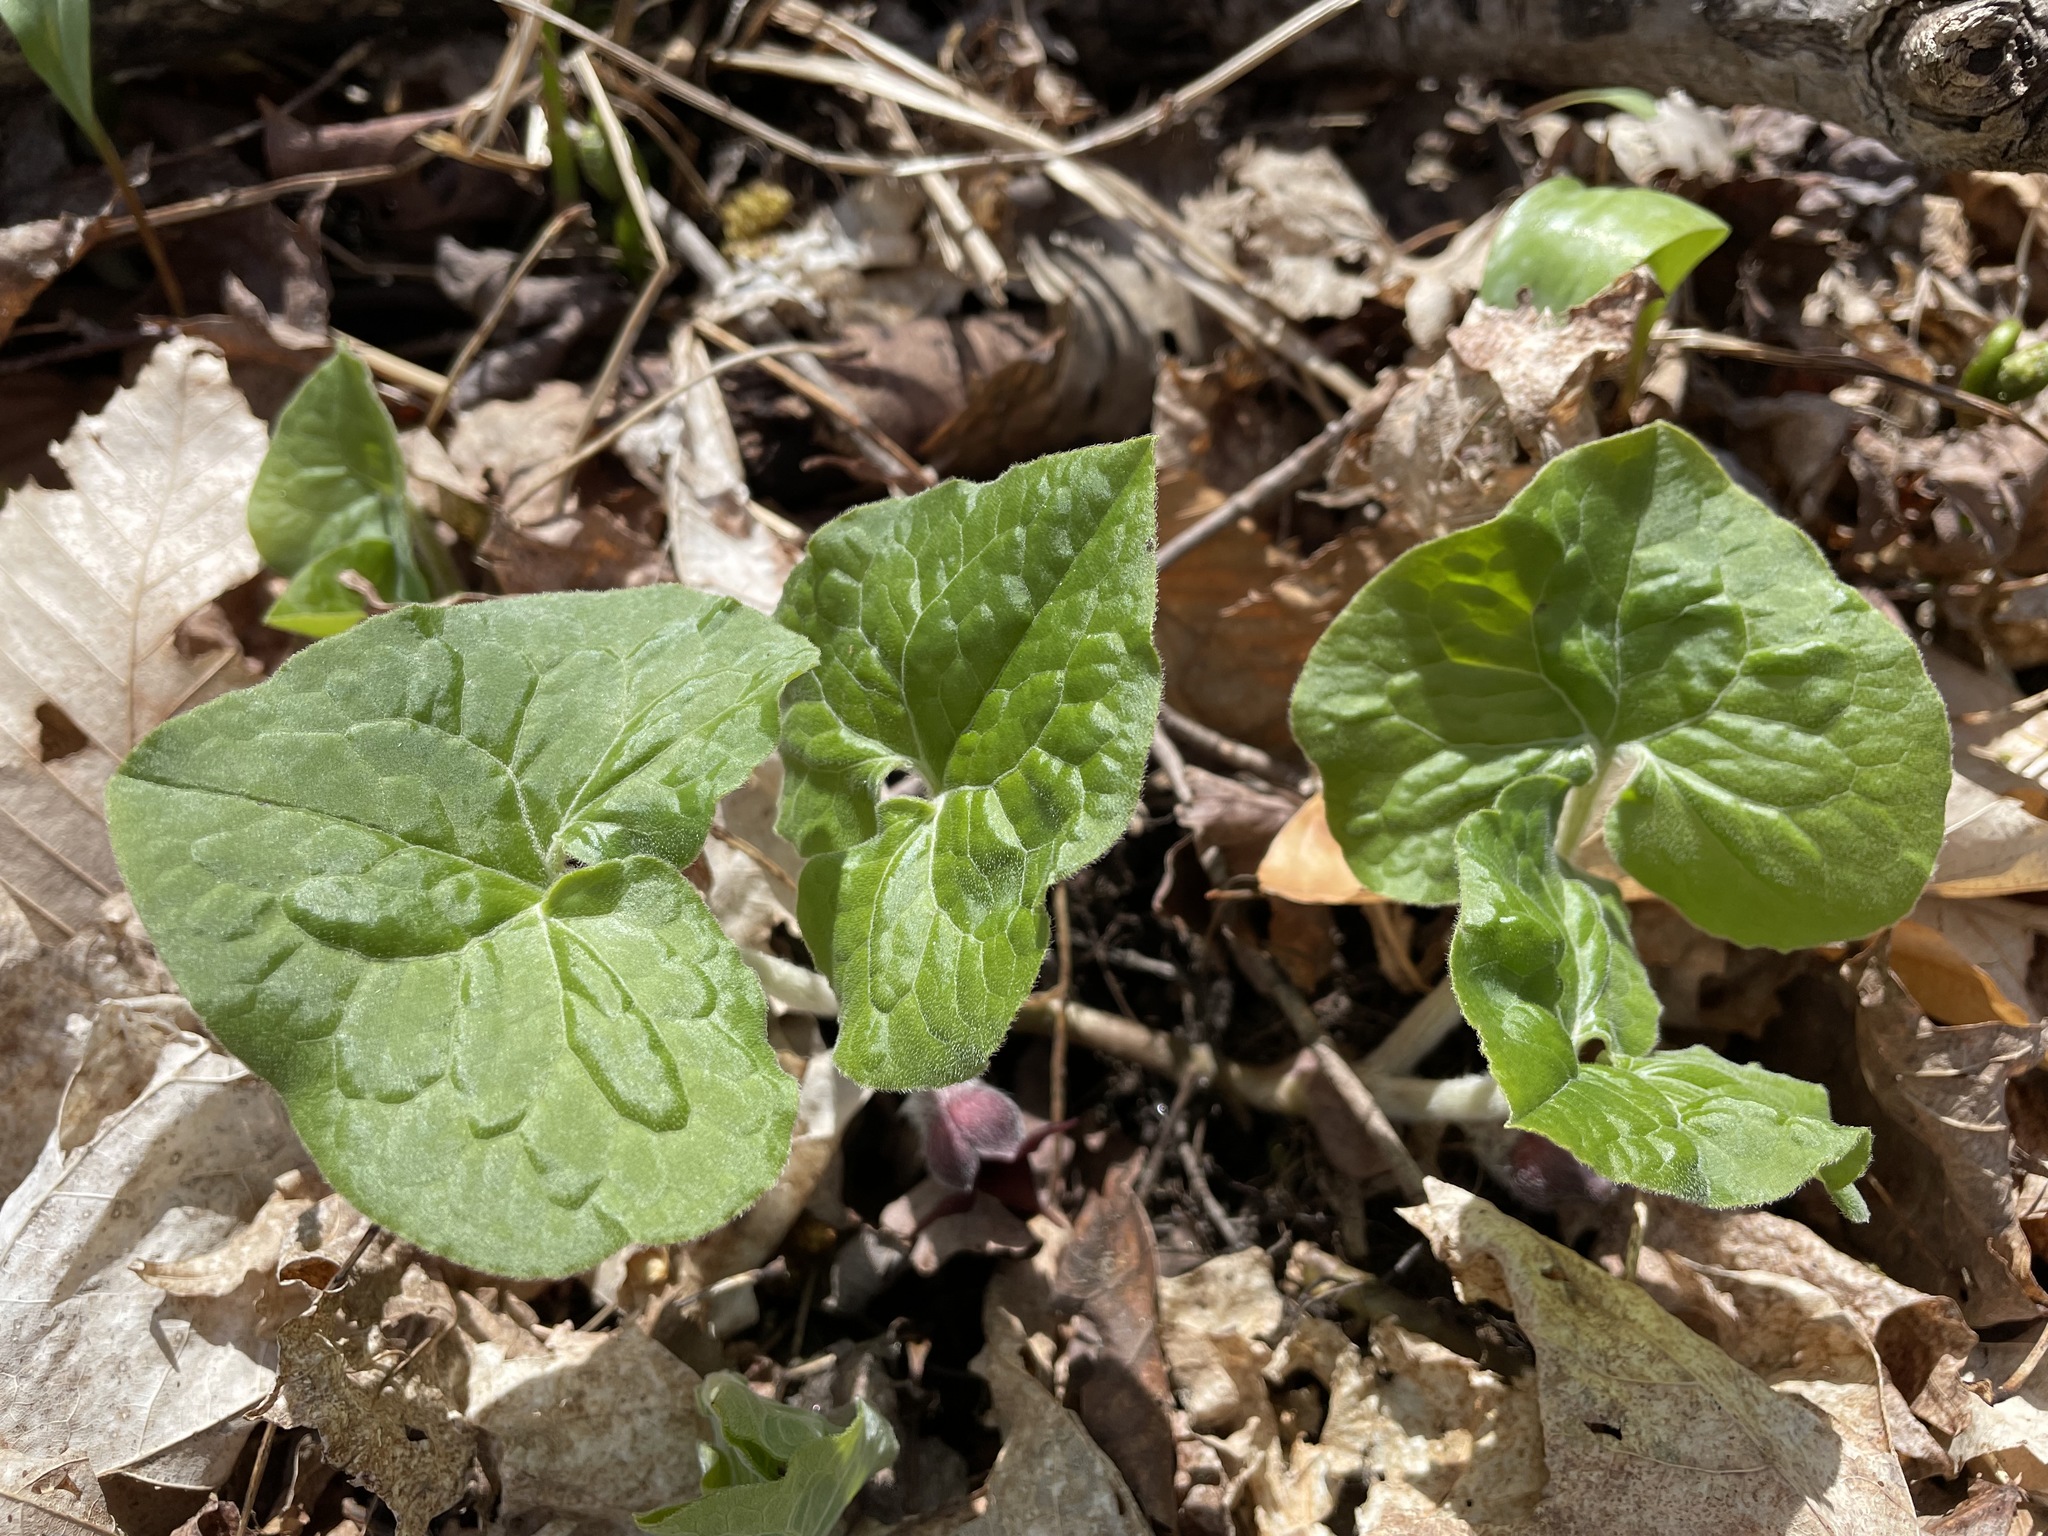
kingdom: Plantae
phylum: Tracheophyta
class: Magnoliopsida
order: Piperales
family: Aristolochiaceae
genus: Asarum
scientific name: Asarum canadense
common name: Wild ginger
